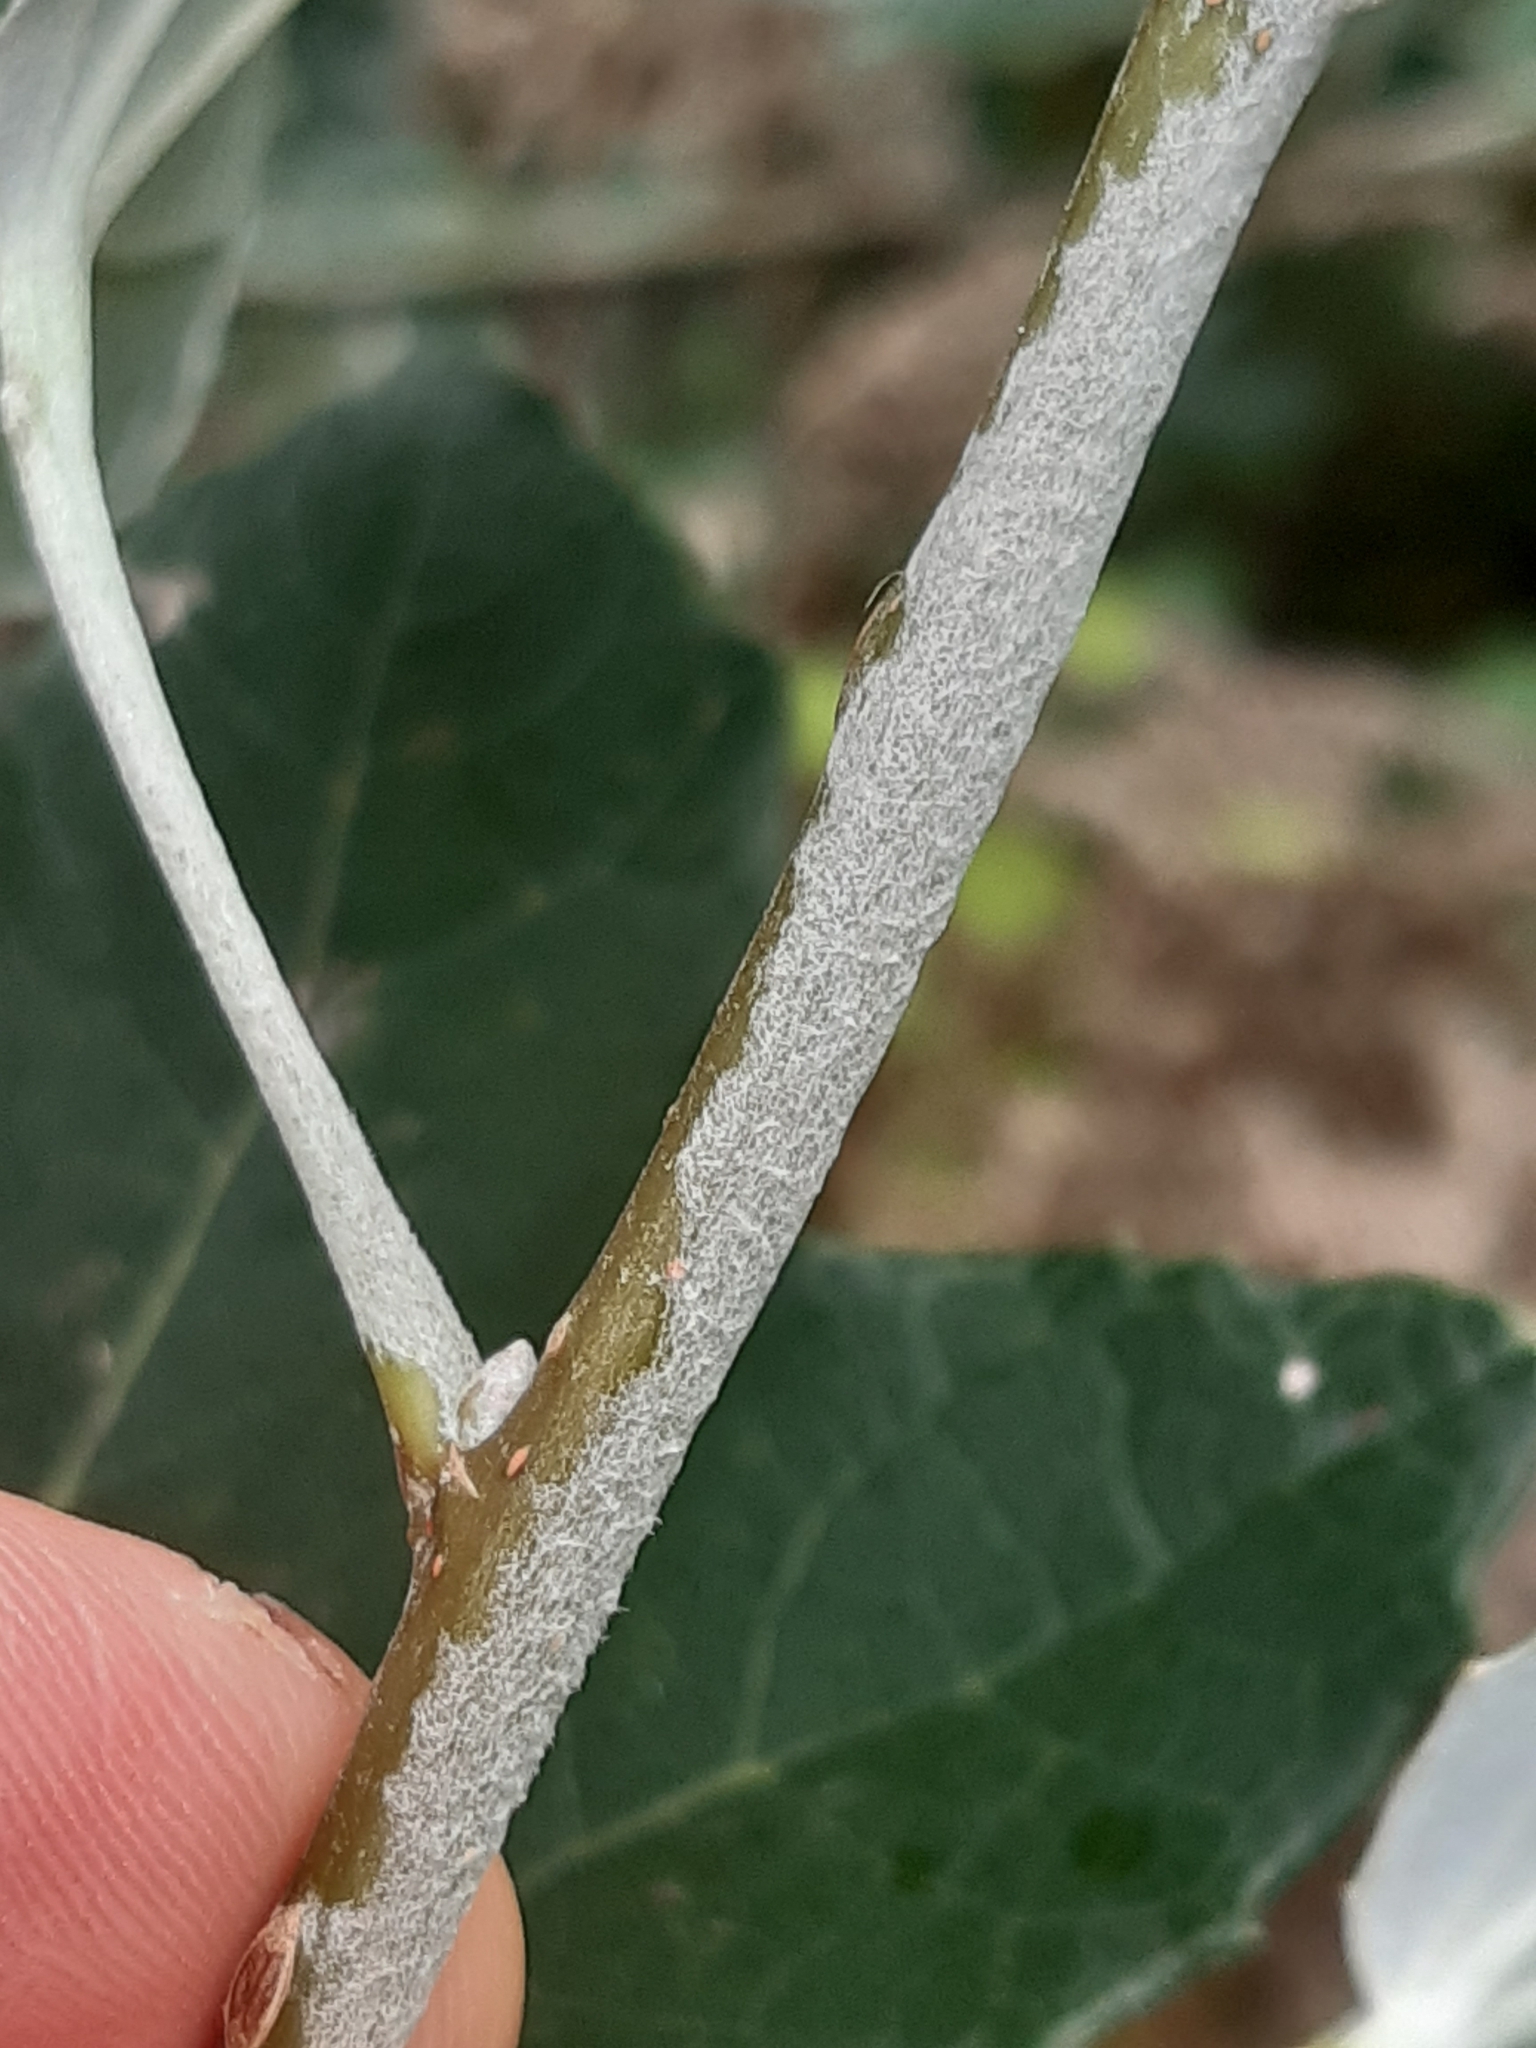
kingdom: Plantae
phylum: Tracheophyta
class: Magnoliopsida
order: Malpighiales
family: Salicaceae
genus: Populus
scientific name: Populus alba
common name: White poplar
